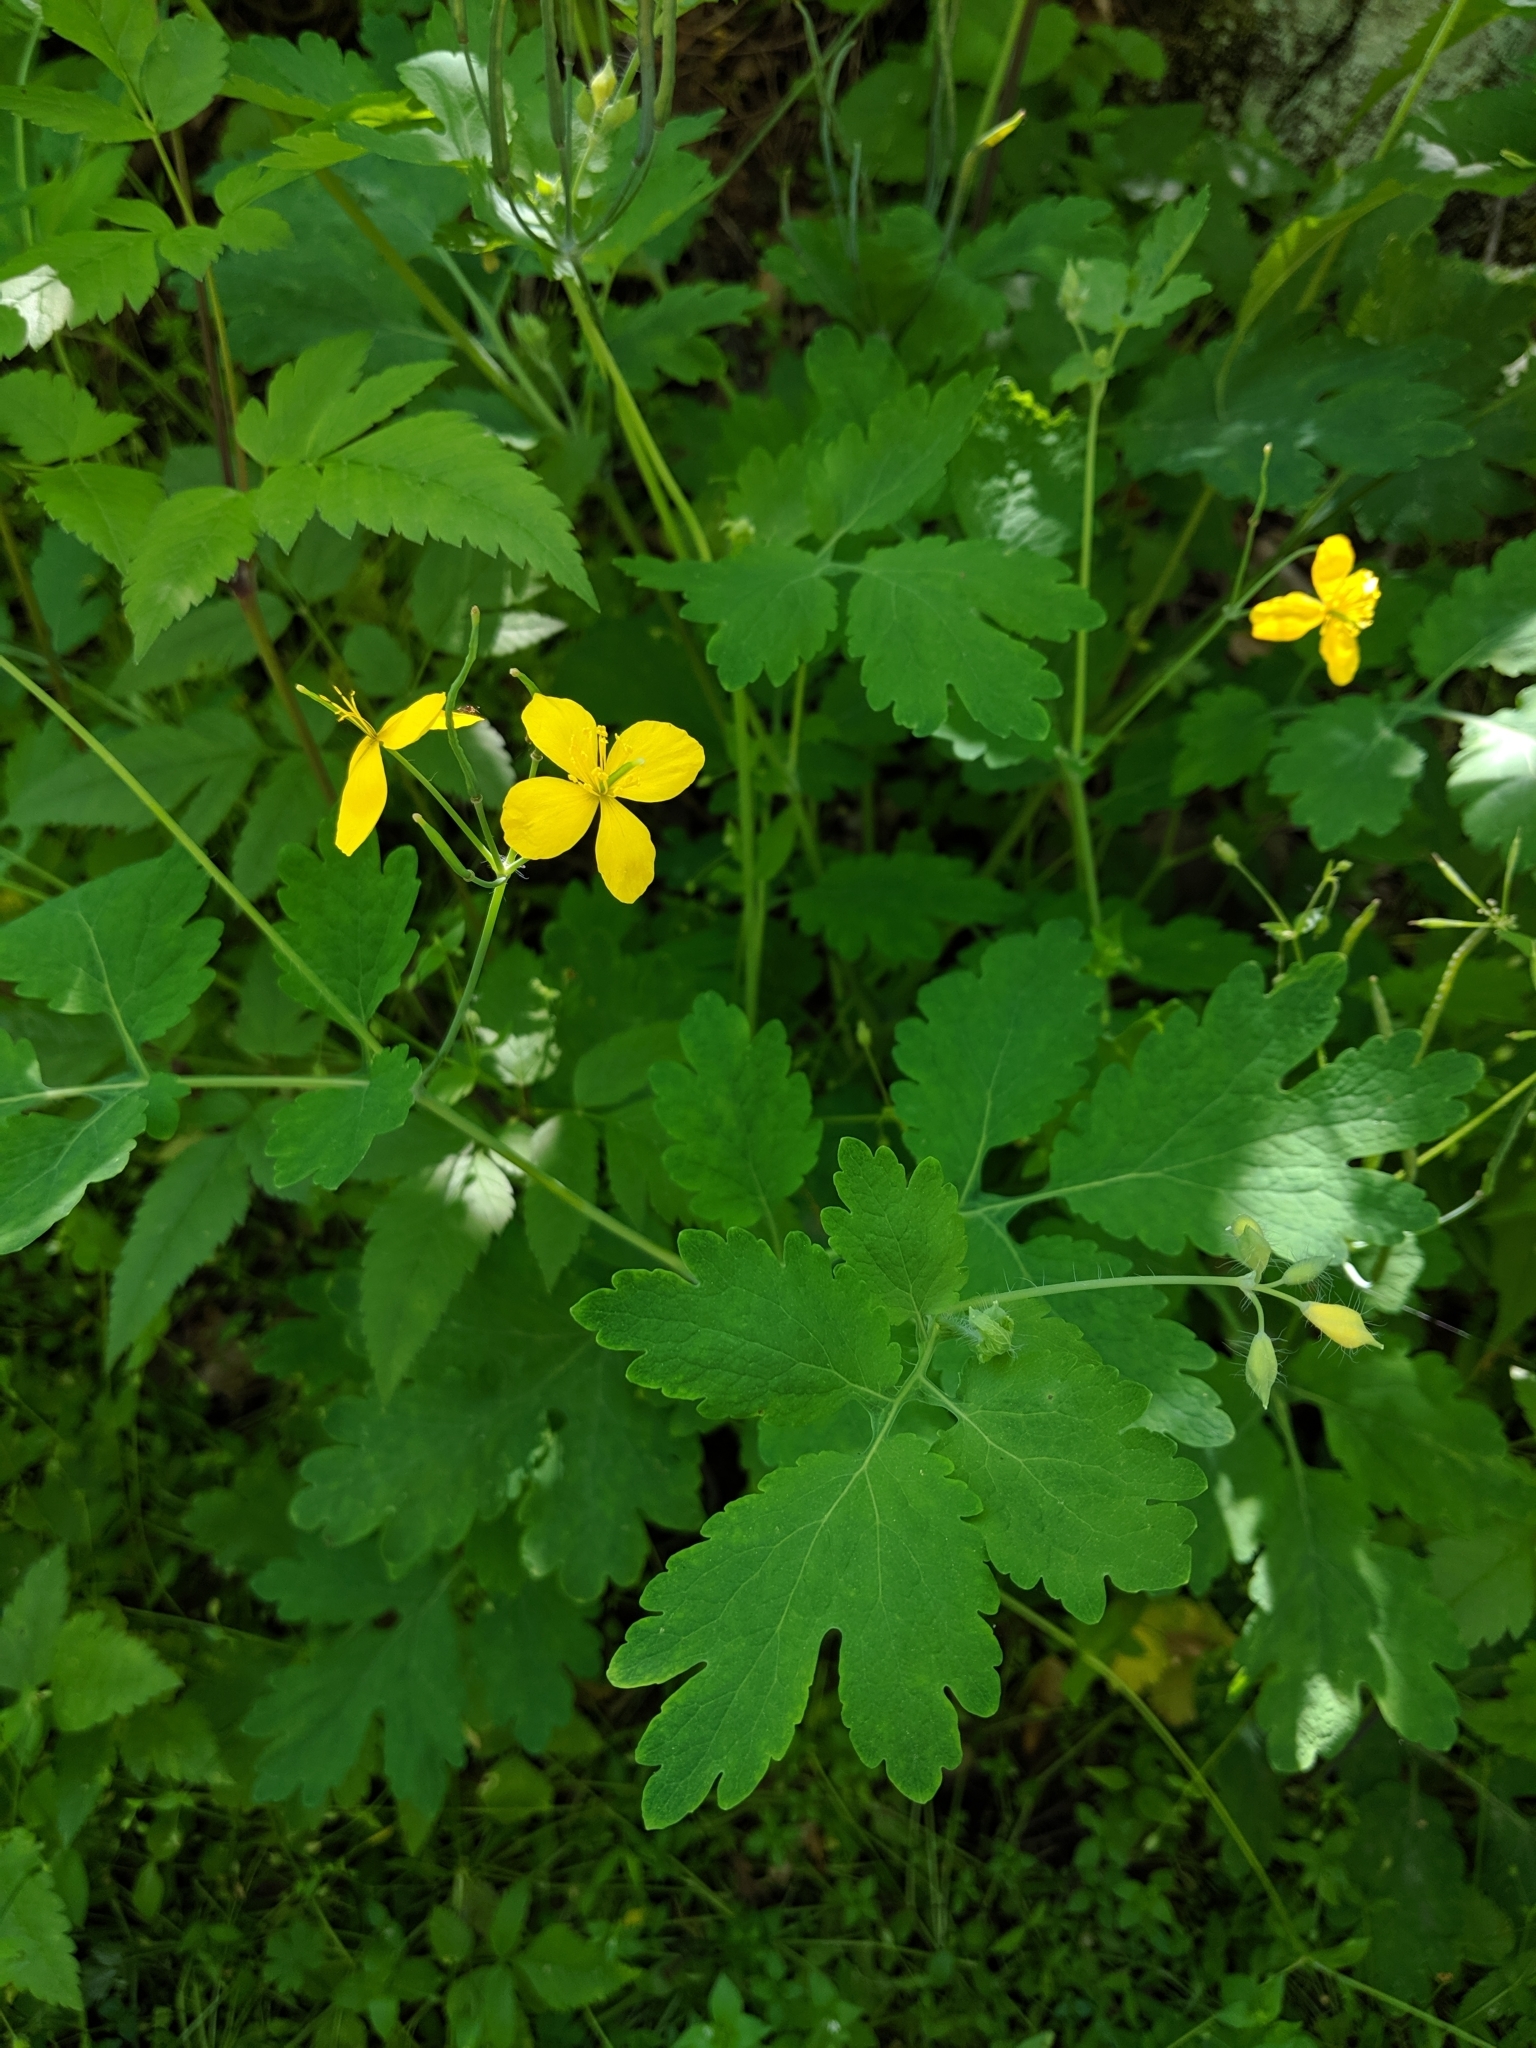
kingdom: Plantae
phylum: Tracheophyta
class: Magnoliopsida
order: Ranunculales
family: Papaveraceae
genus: Chelidonium
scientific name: Chelidonium majus
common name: Greater celandine
